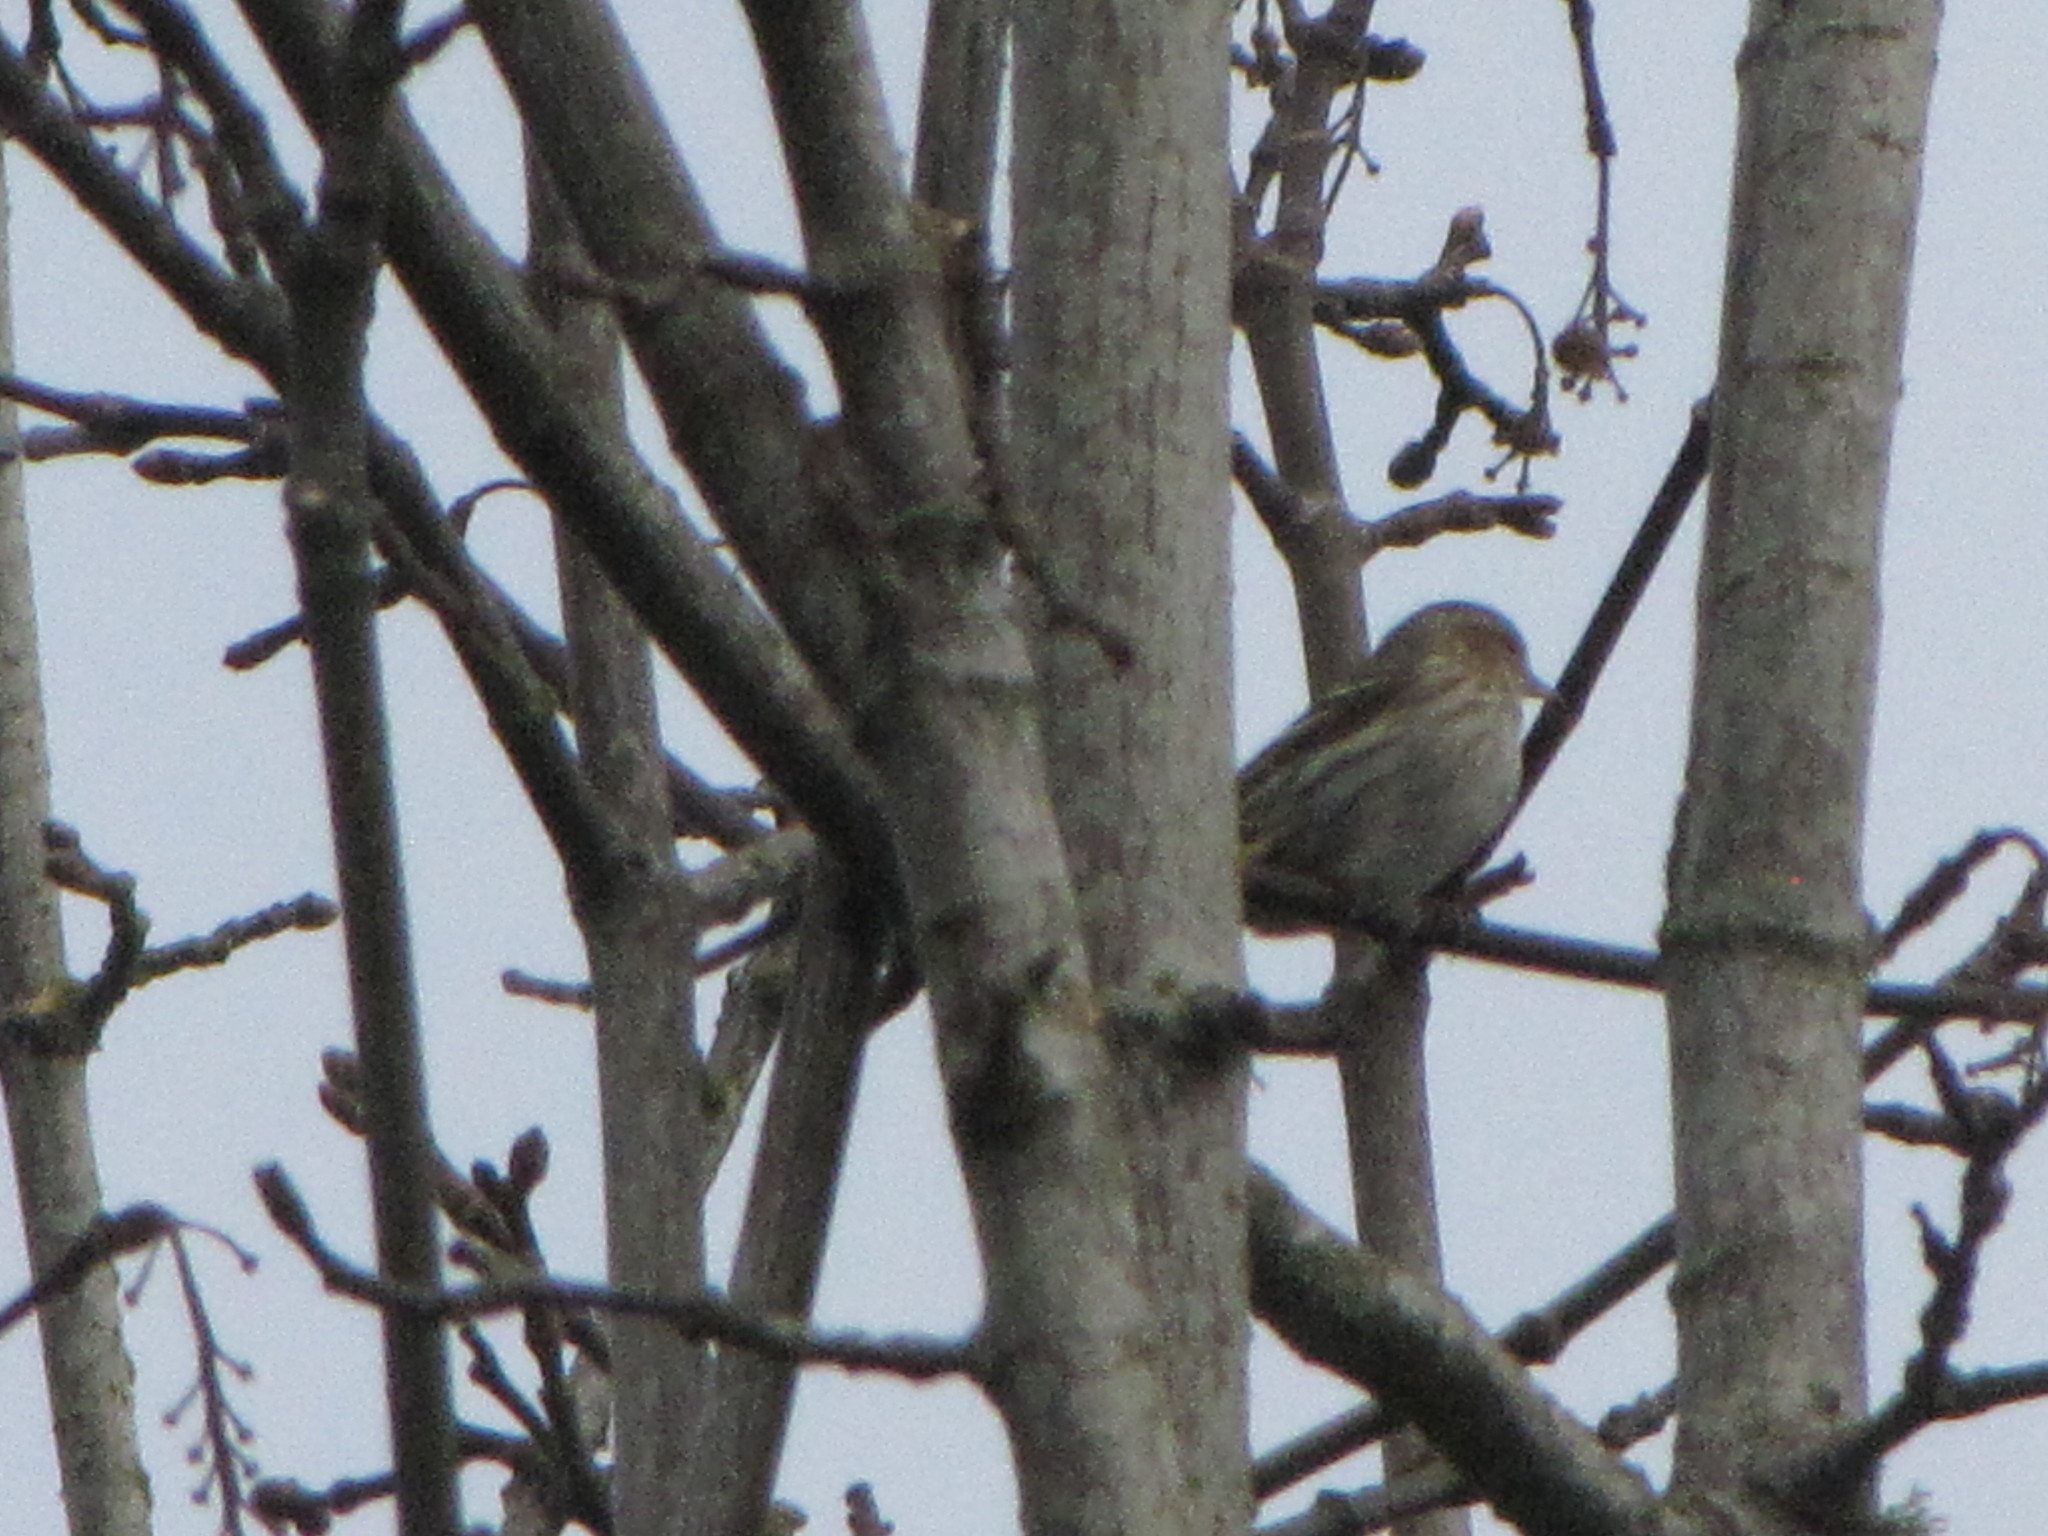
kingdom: Animalia
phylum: Chordata
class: Aves
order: Passeriformes
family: Fringillidae
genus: Spinus
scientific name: Spinus pinus
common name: Pine siskin
